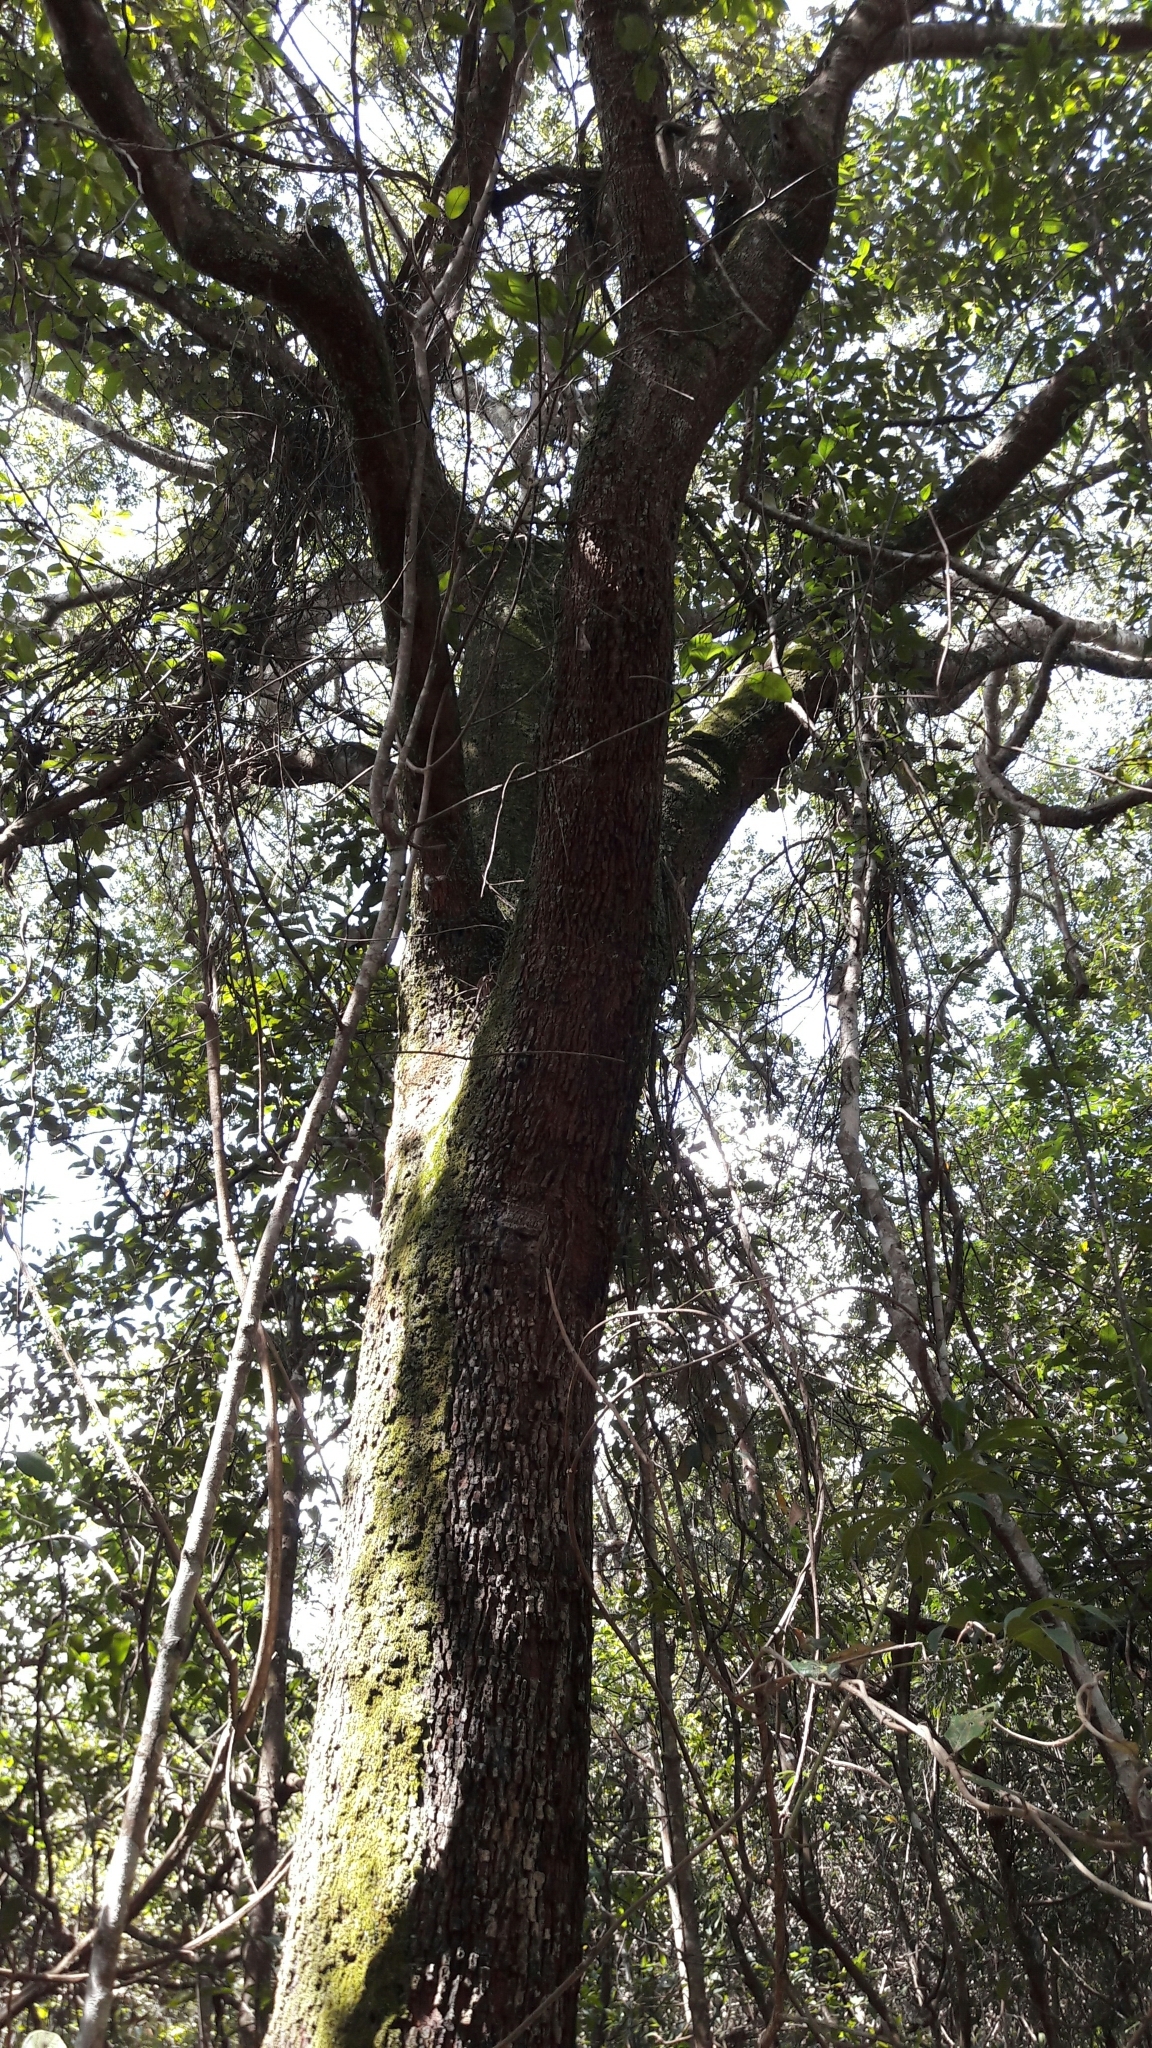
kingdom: Plantae
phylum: Tracheophyta
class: Magnoliopsida
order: Fabales
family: Fabaceae
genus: Copaifera
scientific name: Copaifera langsdorffii
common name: Brazilian diesel tree
